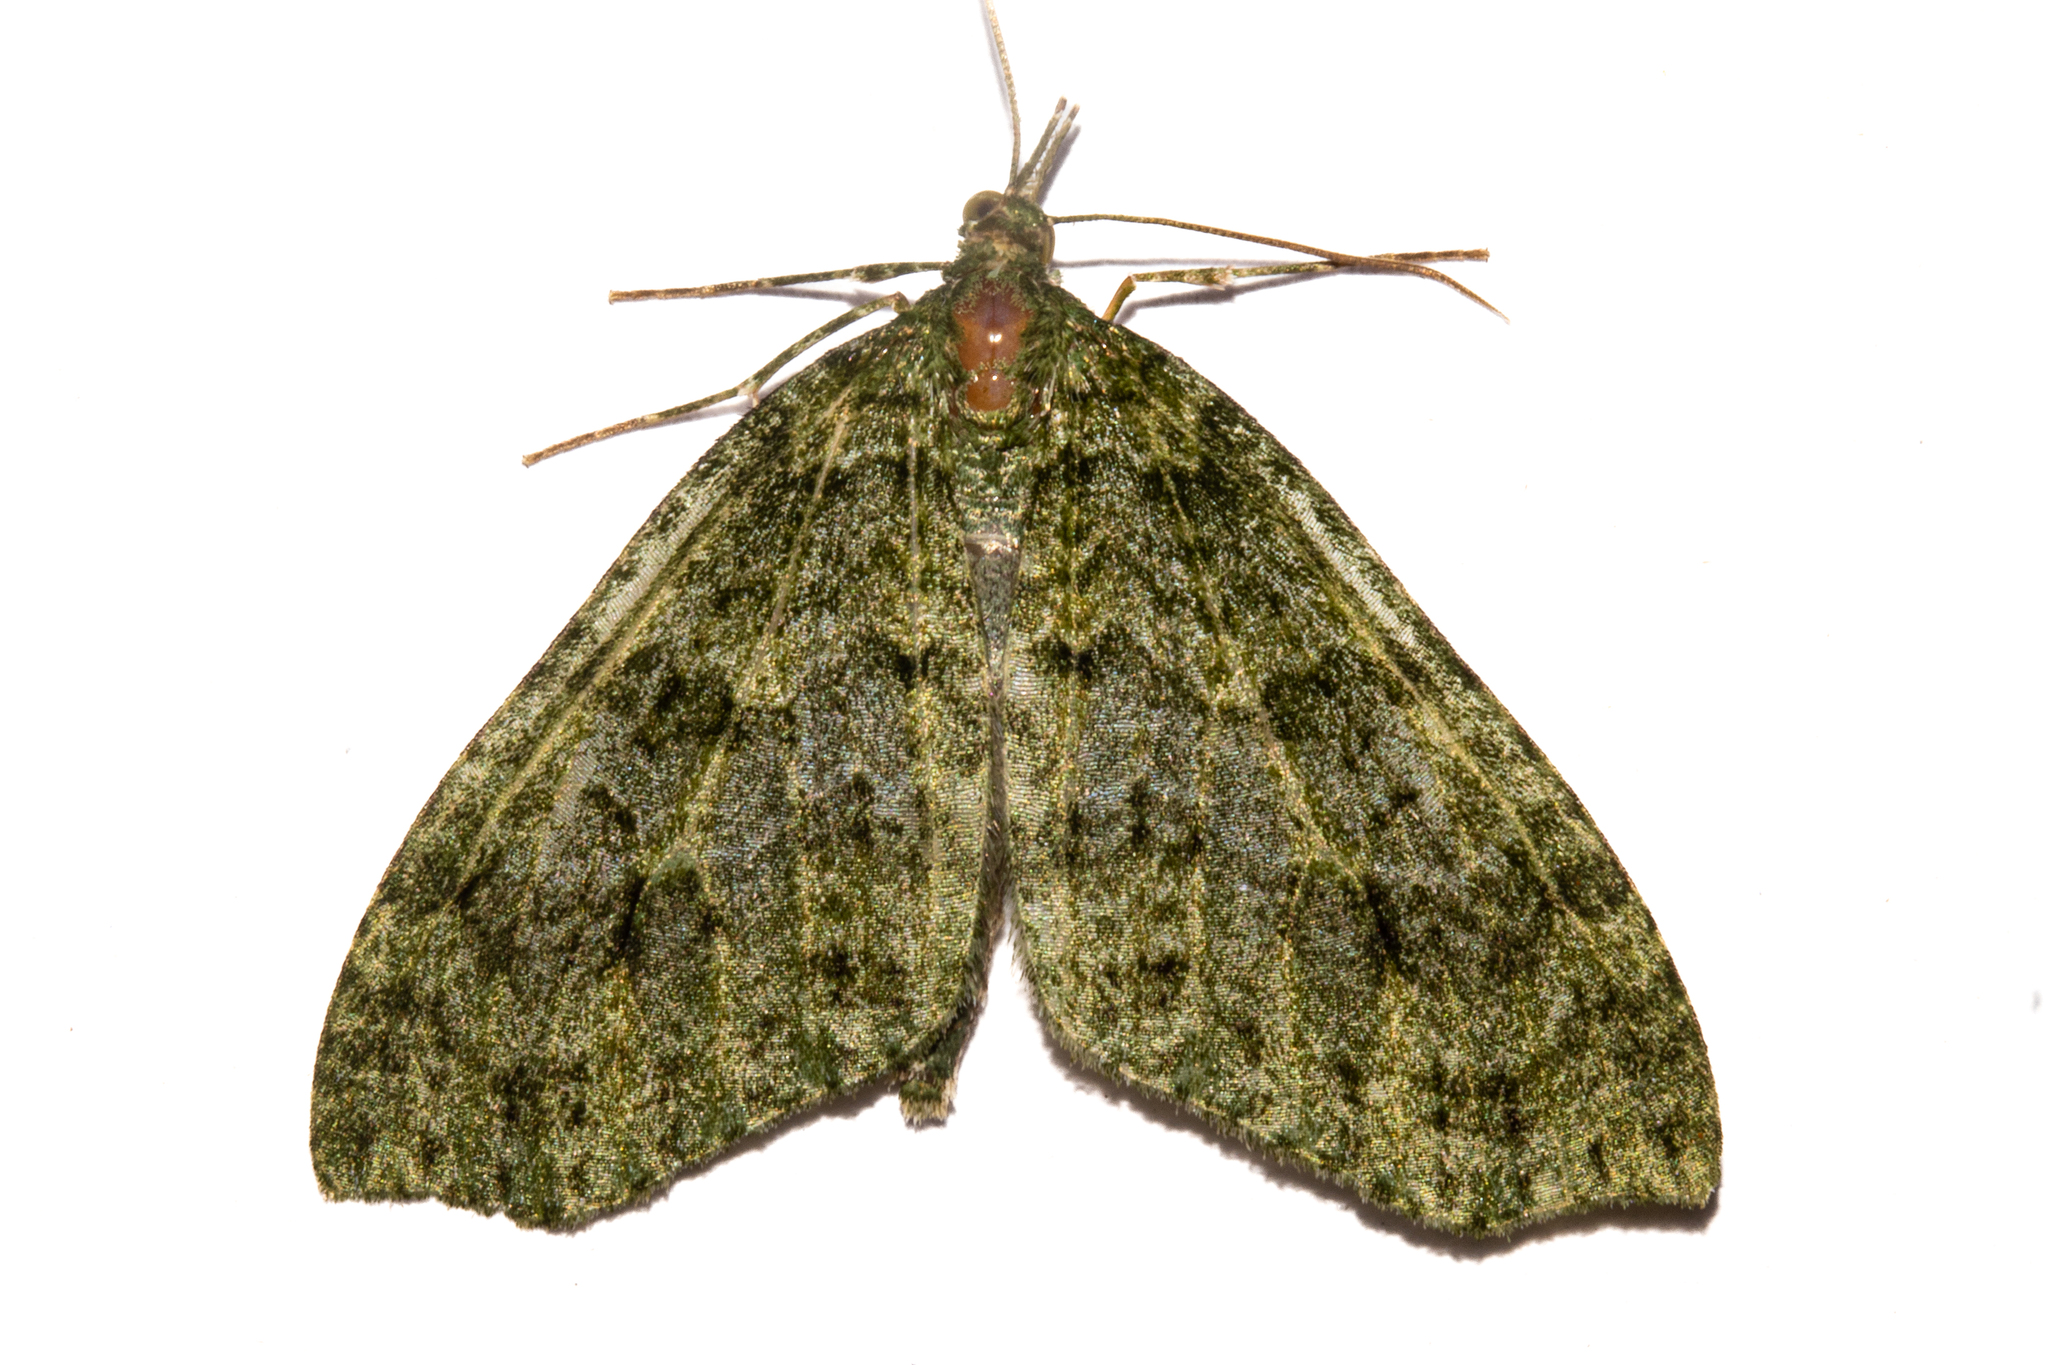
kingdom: Animalia
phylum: Arthropoda
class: Insecta
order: Lepidoptera
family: Geometridae
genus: Tatosoma
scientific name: Tatosoma monoviridisata
